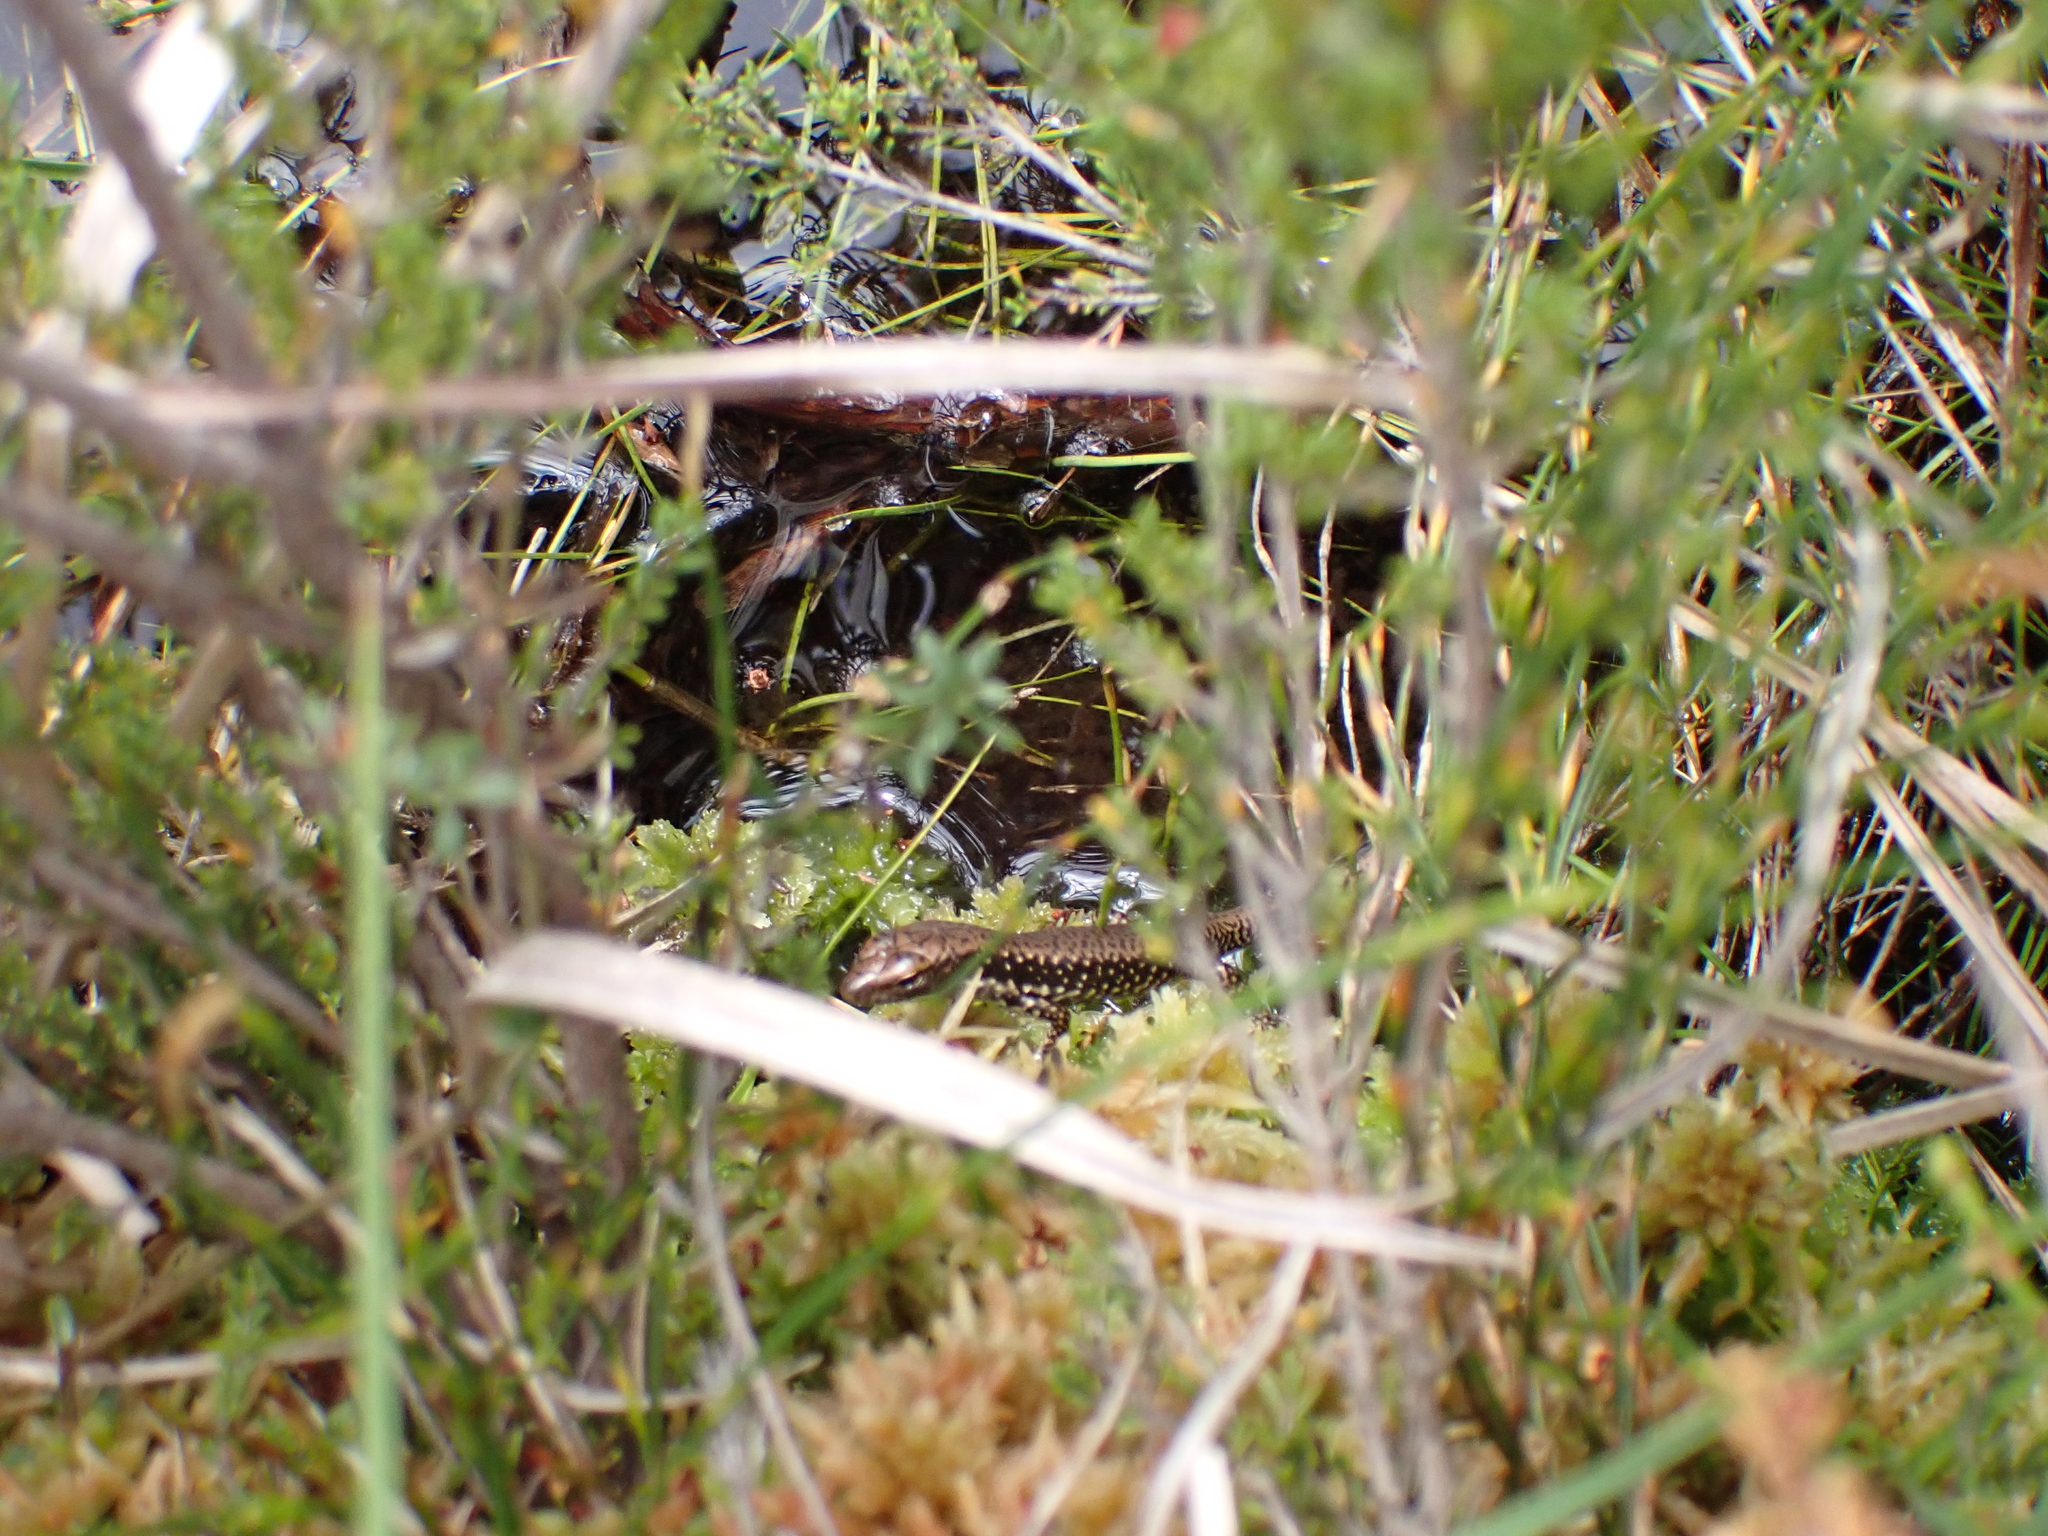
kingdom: Animalia
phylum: Chordata
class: Squamata
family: Scincidae
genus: Eulamprus
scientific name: Eulamprus heatwolei
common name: Warm-temperate water-skink
